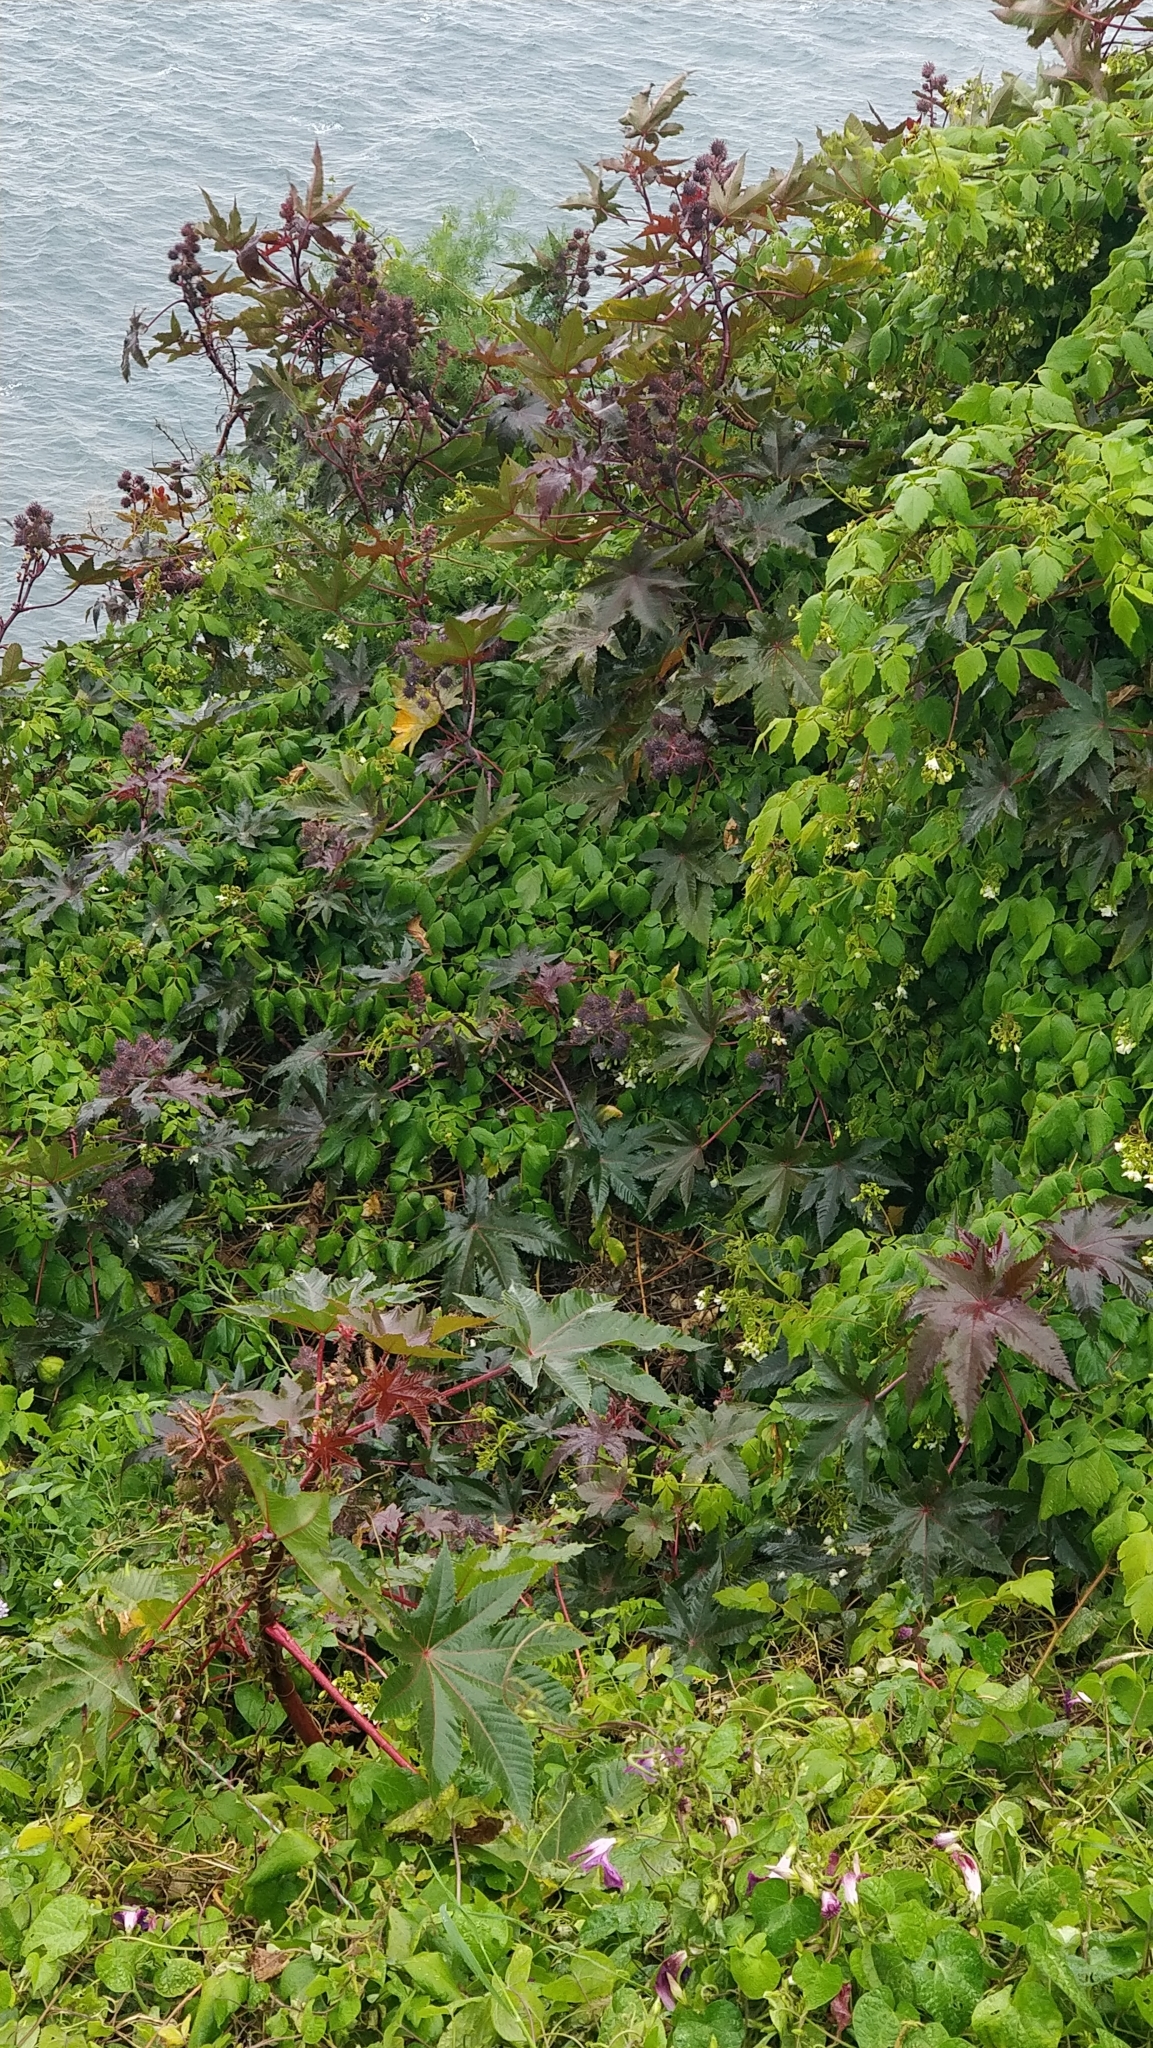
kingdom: Plantae
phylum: Tracheophyta
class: Magnoliopsida
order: Malpighiales
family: Euphorbiaceae
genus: Ricinus
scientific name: Ricinus communis
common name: Castor-oil-plant
